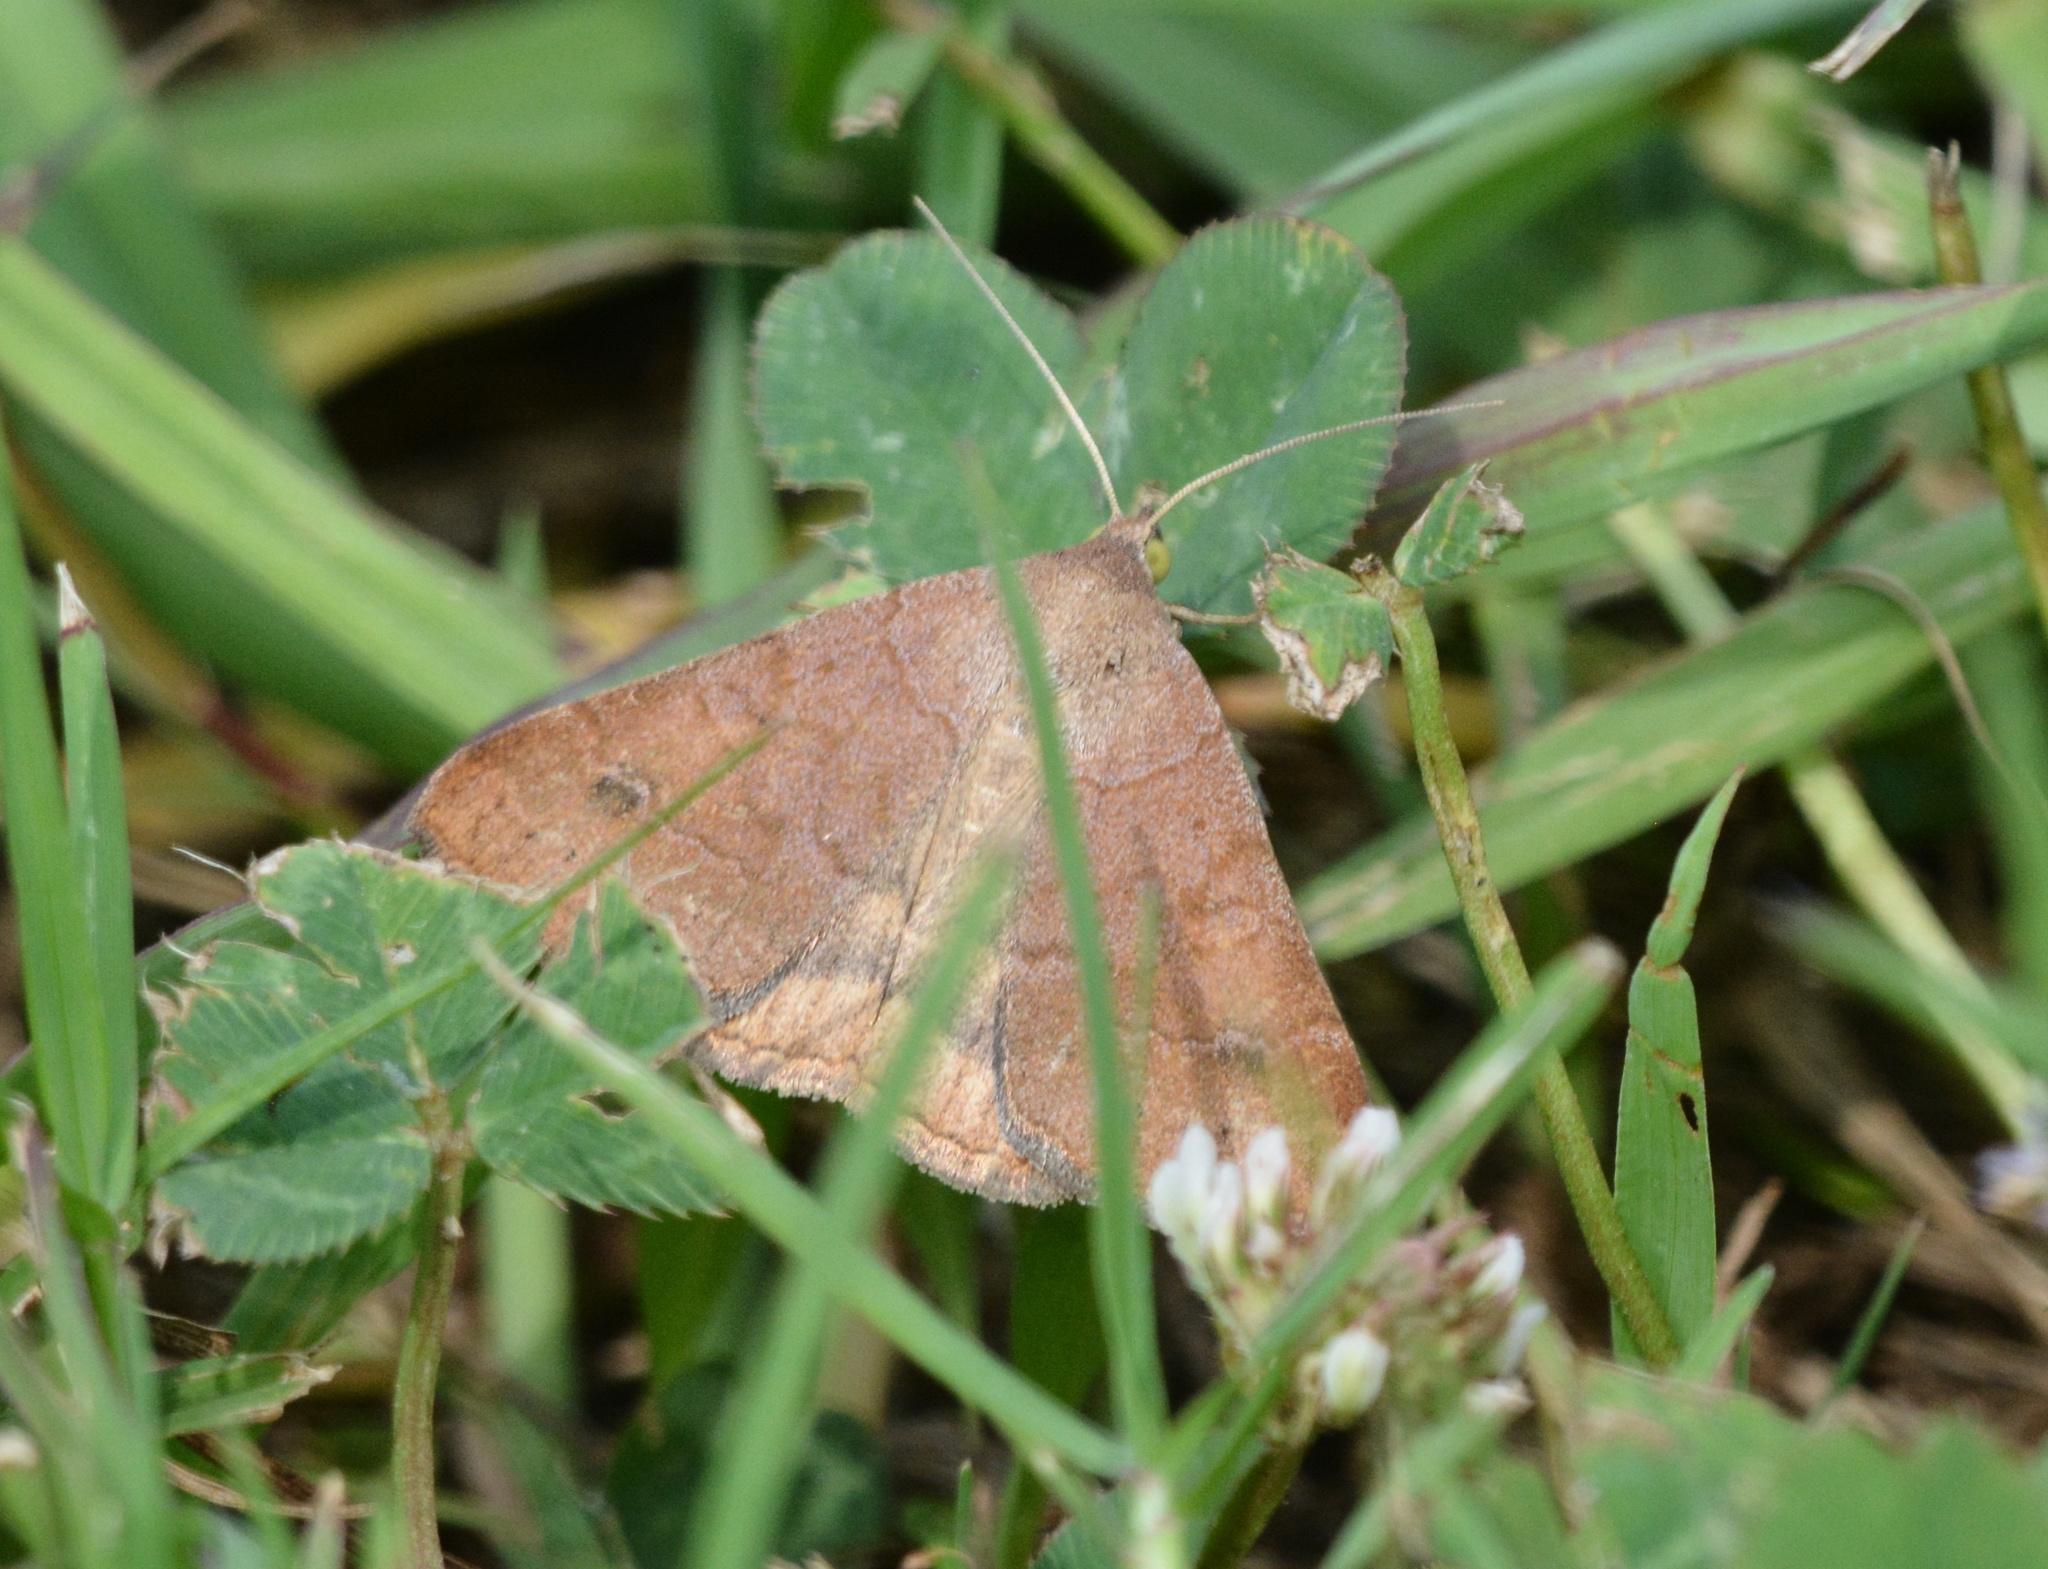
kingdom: Animalia
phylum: Arthropoda
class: Insecta
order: Lepidoptera
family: Erebidae
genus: Caenurgia
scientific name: Caenurgia chloropha
